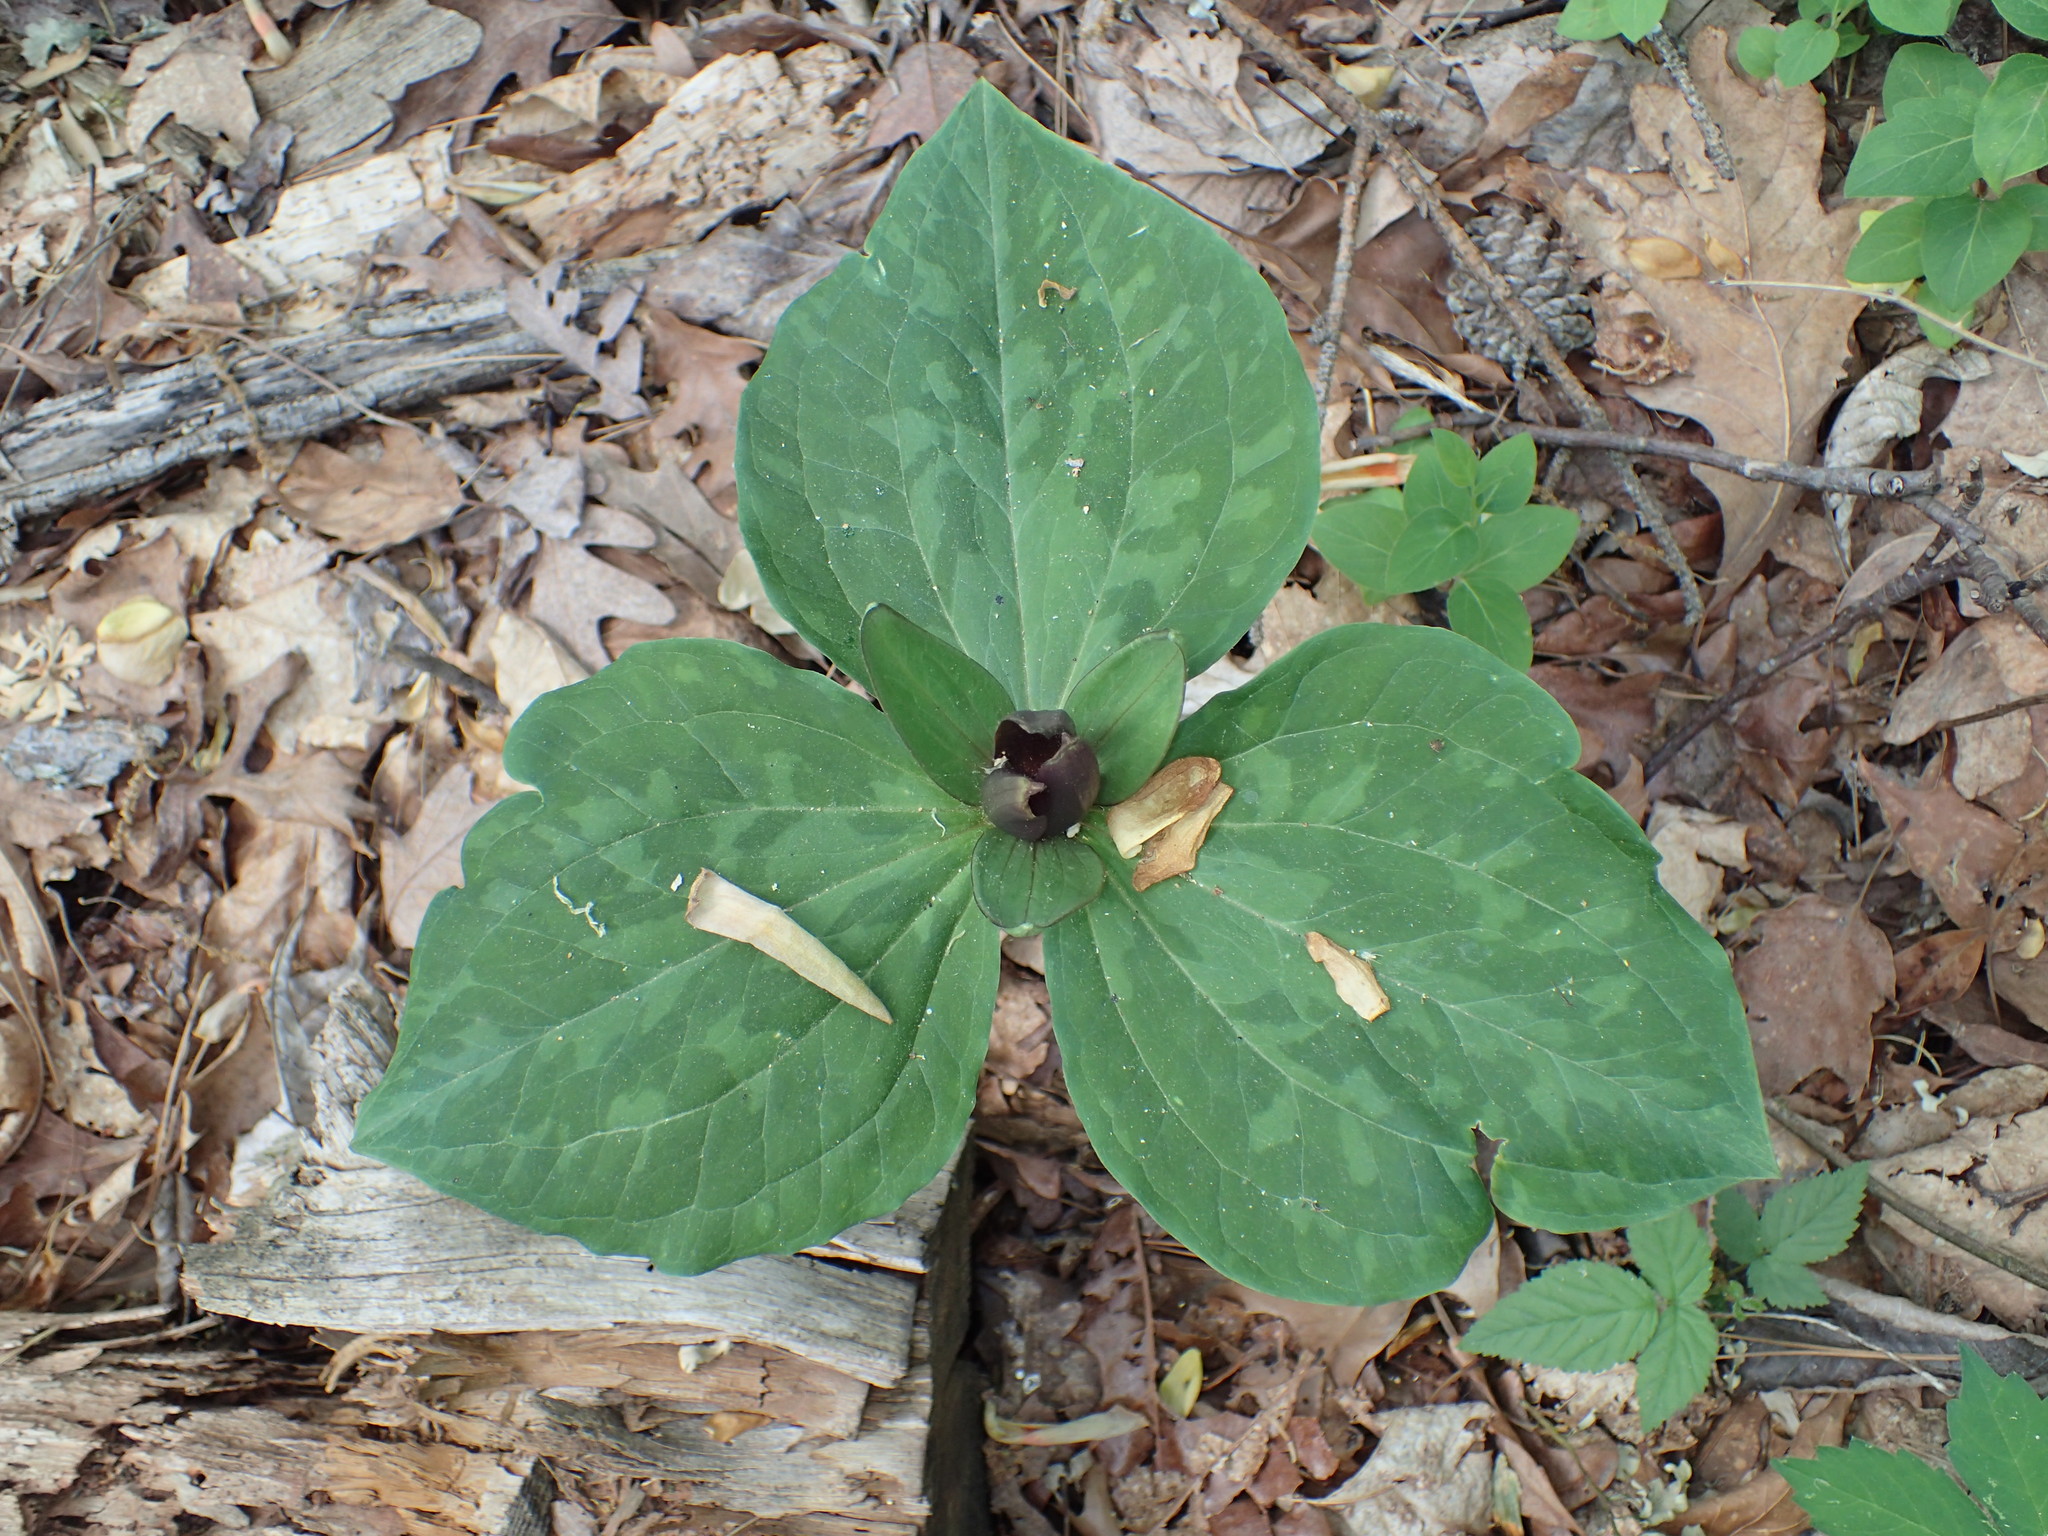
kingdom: Plantae
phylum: Tracheophyta
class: Liliopsida
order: Liliales
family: Melanthiaceae
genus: Trillium
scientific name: Trillium cuneatum
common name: Cuneate trillium
